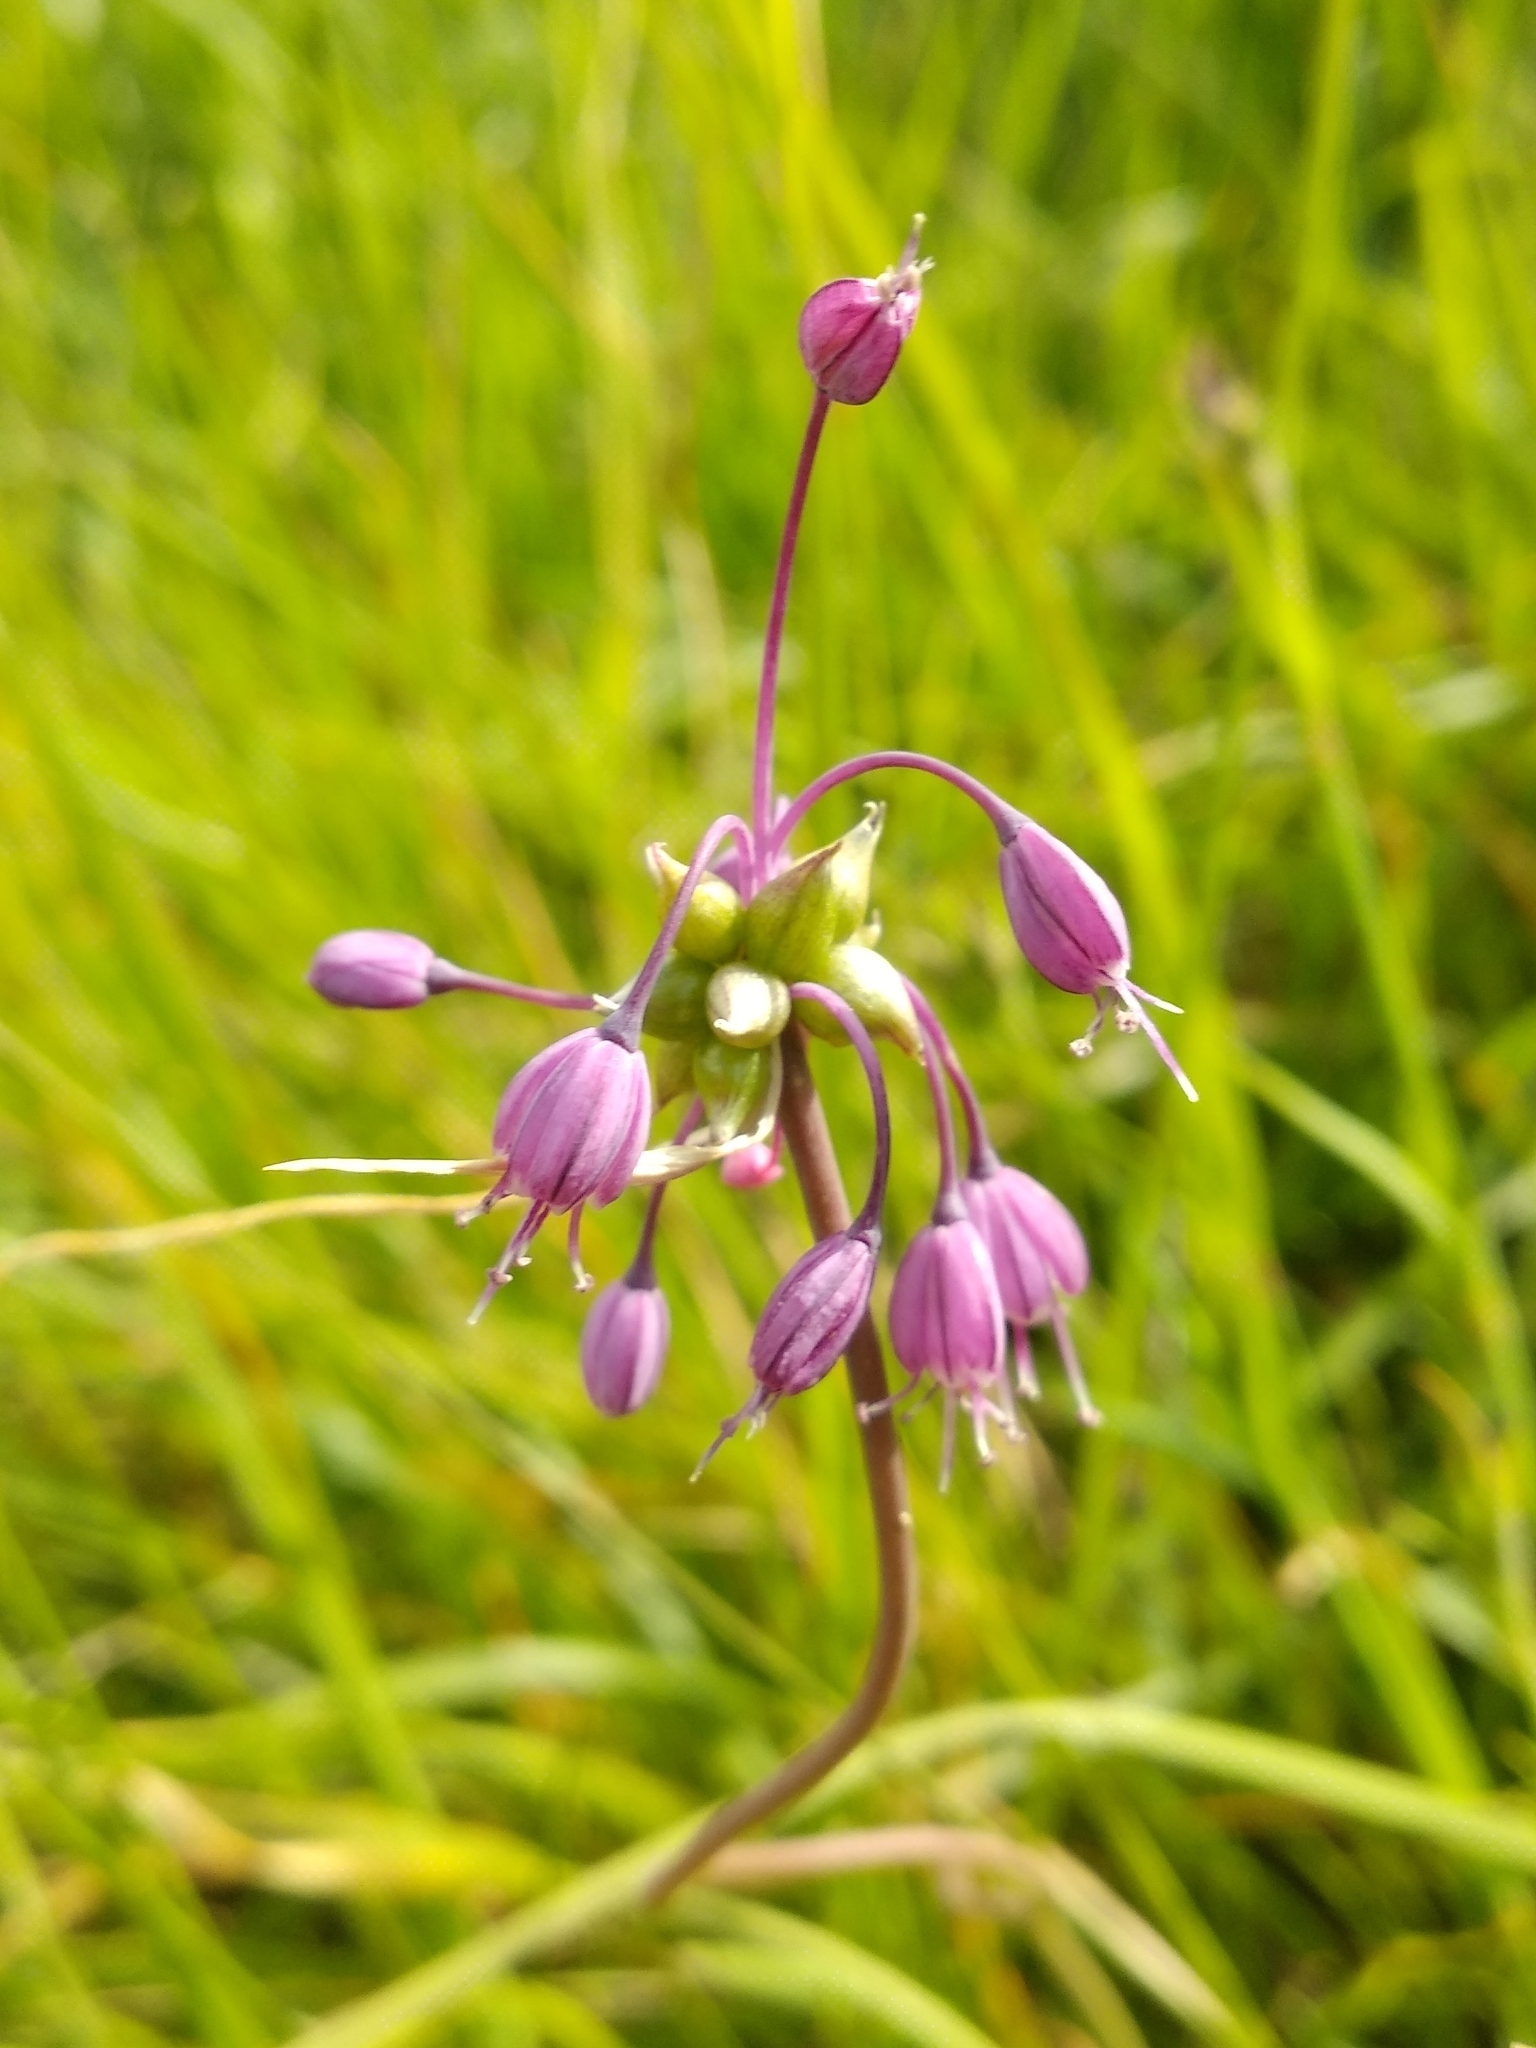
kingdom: Plantae
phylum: Tracheophyta
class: Liliopsida
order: Asparagales
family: Amaryllidaceae
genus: Allium
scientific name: Allium carinatum
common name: Keeled garlic
